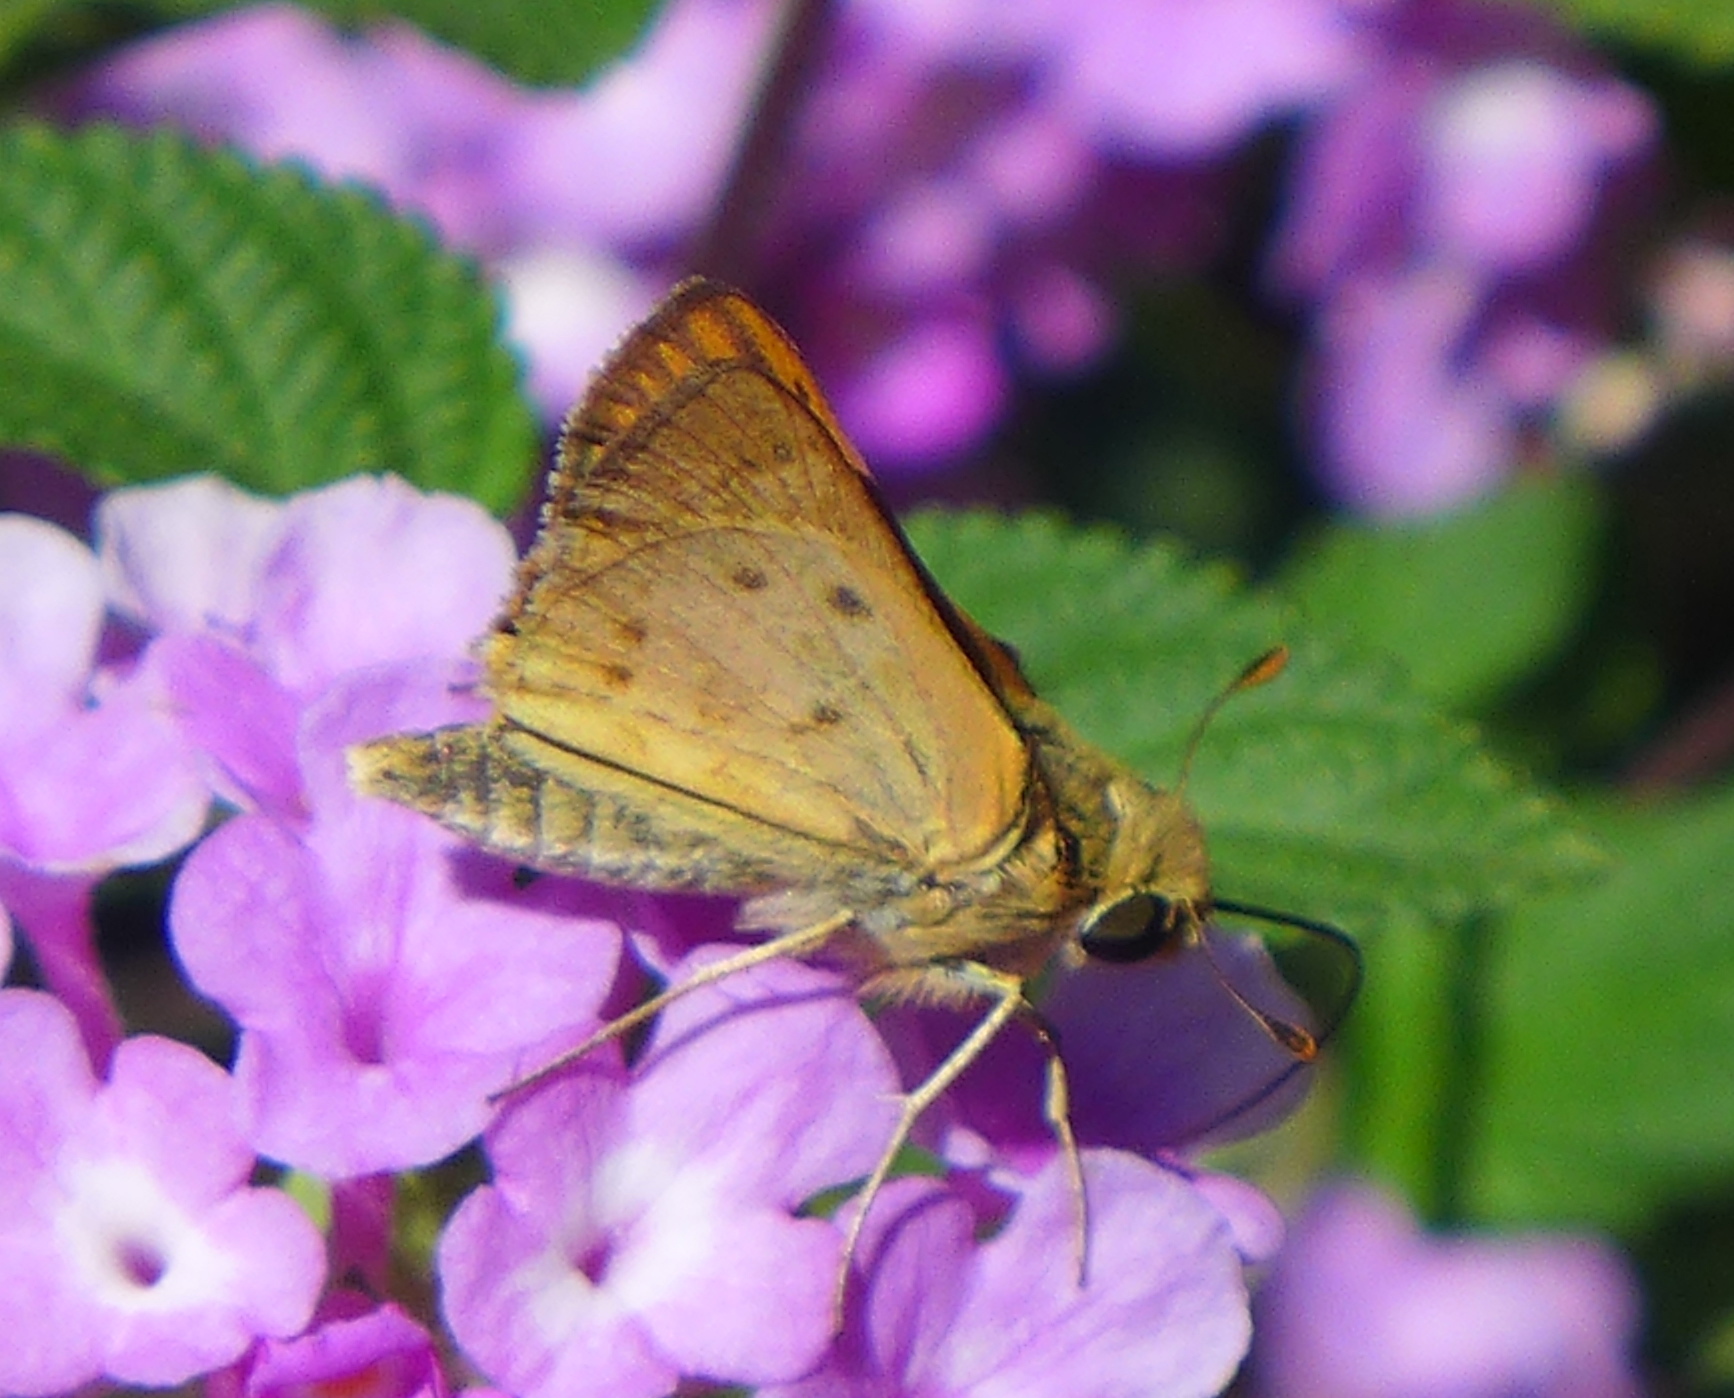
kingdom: Animalia
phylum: Arthropoda
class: Insecta
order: Lepidoptera
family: Hesperiidae
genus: Hylephila
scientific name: Hylephila phyleus
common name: Fiery skipper
